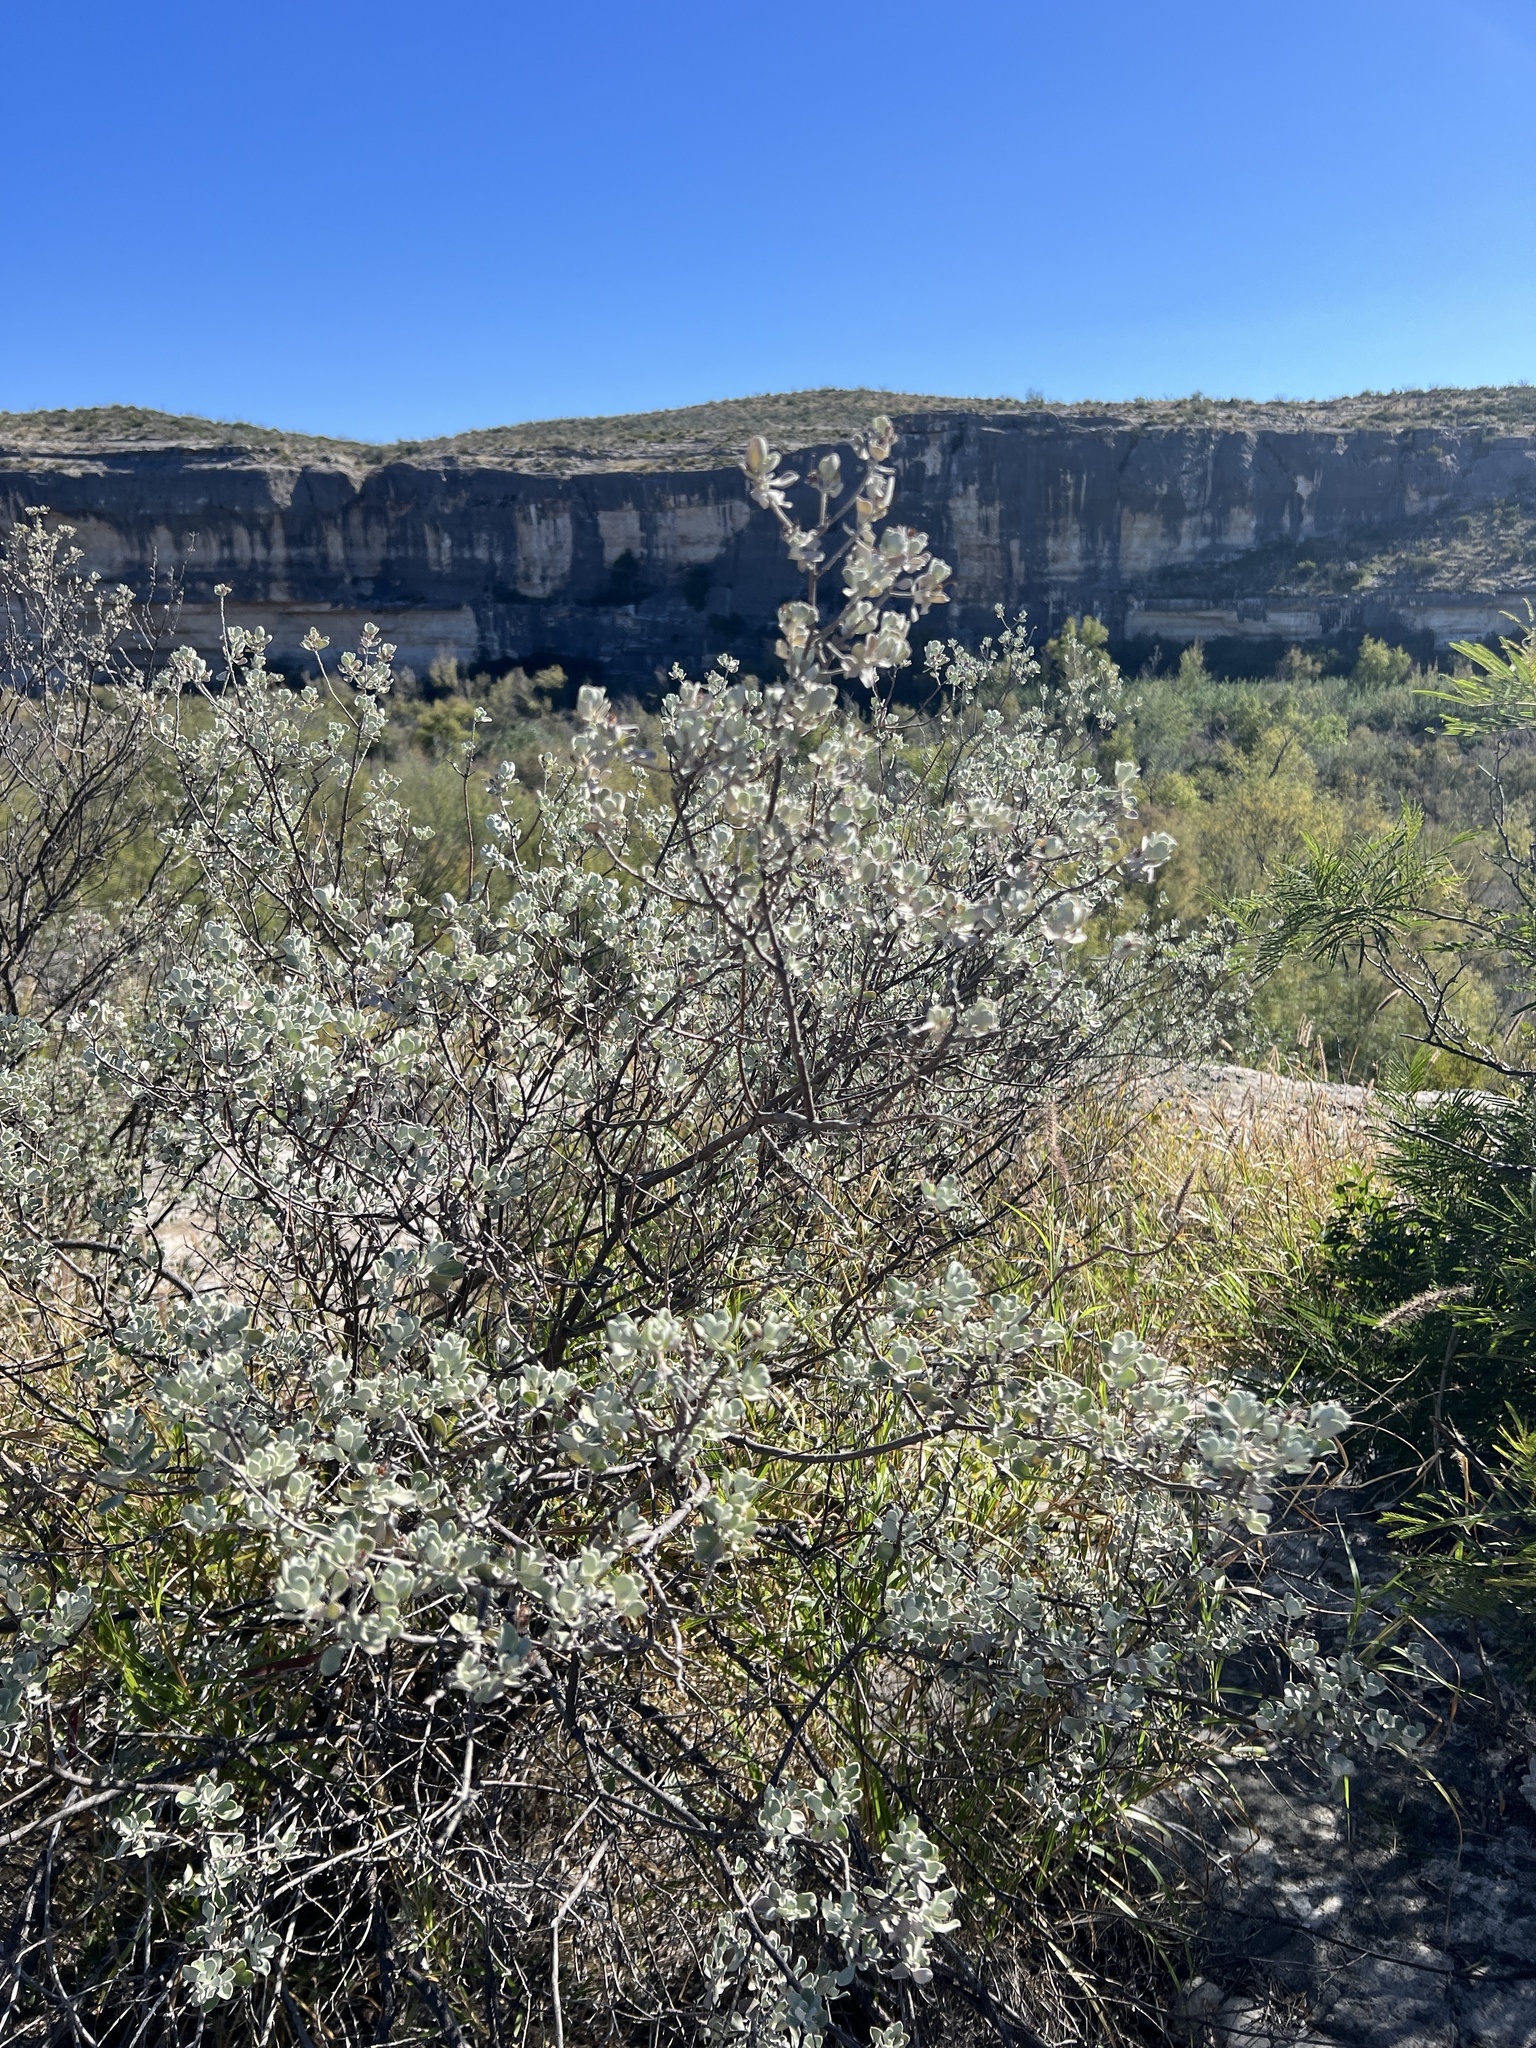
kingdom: Plantae
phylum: Tracheophyta
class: Magnoliopsida
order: Lamiales
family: Scrophulariaceae
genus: Leucophyllum
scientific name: Leucophyllum frutescens
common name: Texas silverleaf
